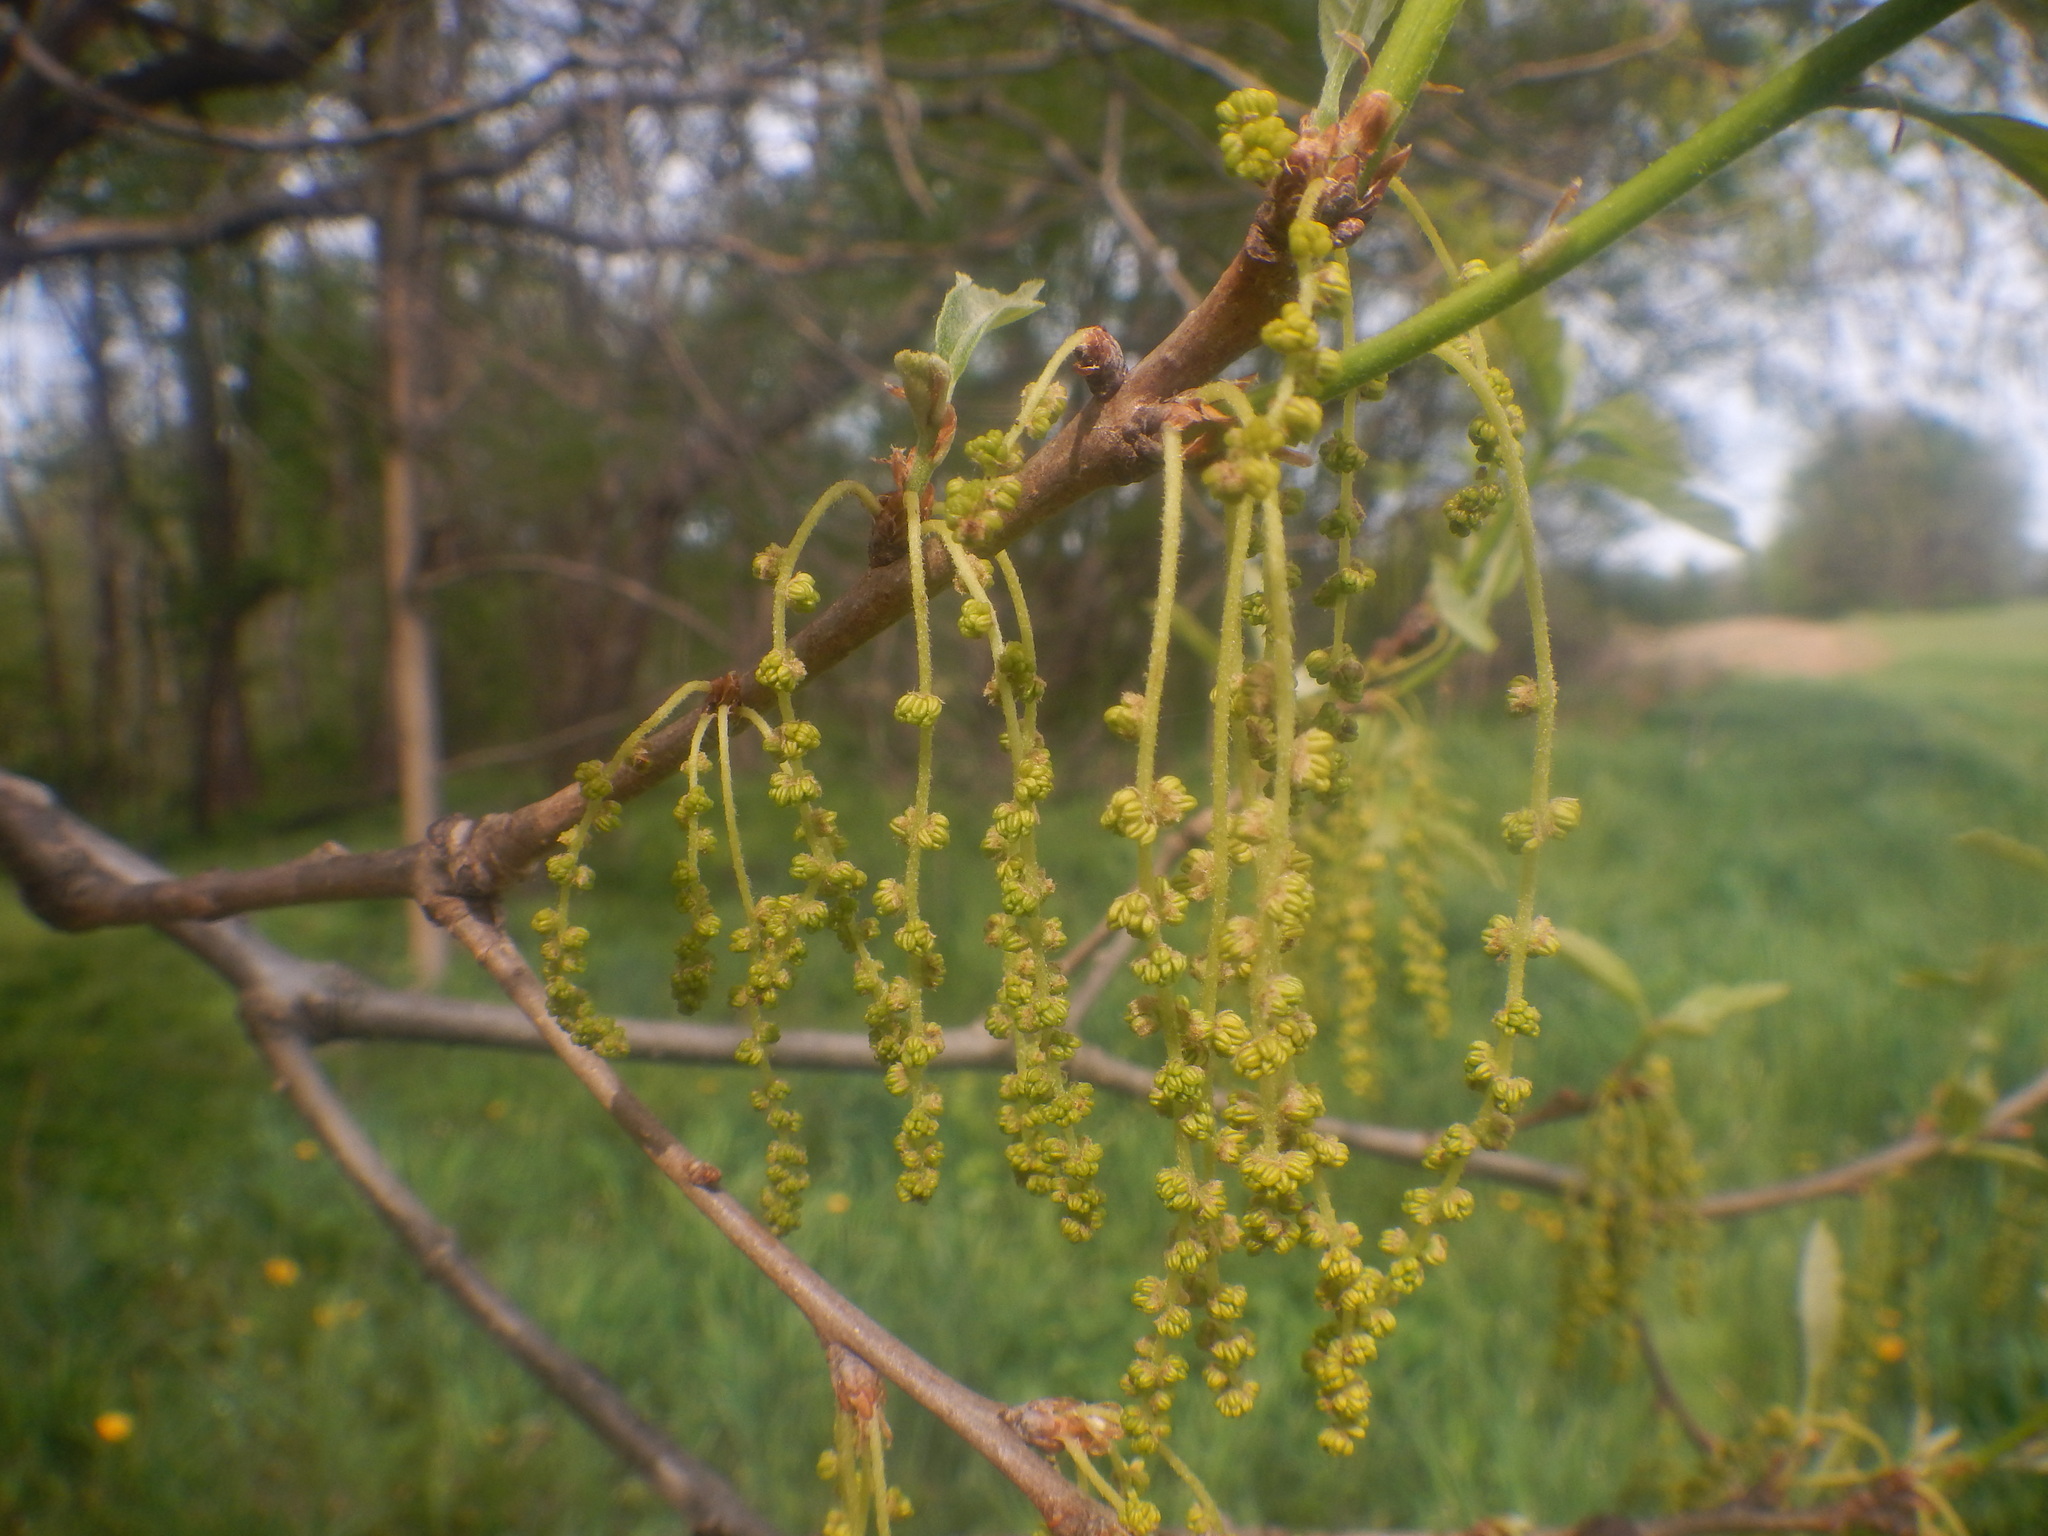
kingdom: Plantae
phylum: Tracheophyta
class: Magnoliopsida
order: Fagales
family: Fagaceae
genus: Quercus
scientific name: Quercus bicolor
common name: Swamp white oak
